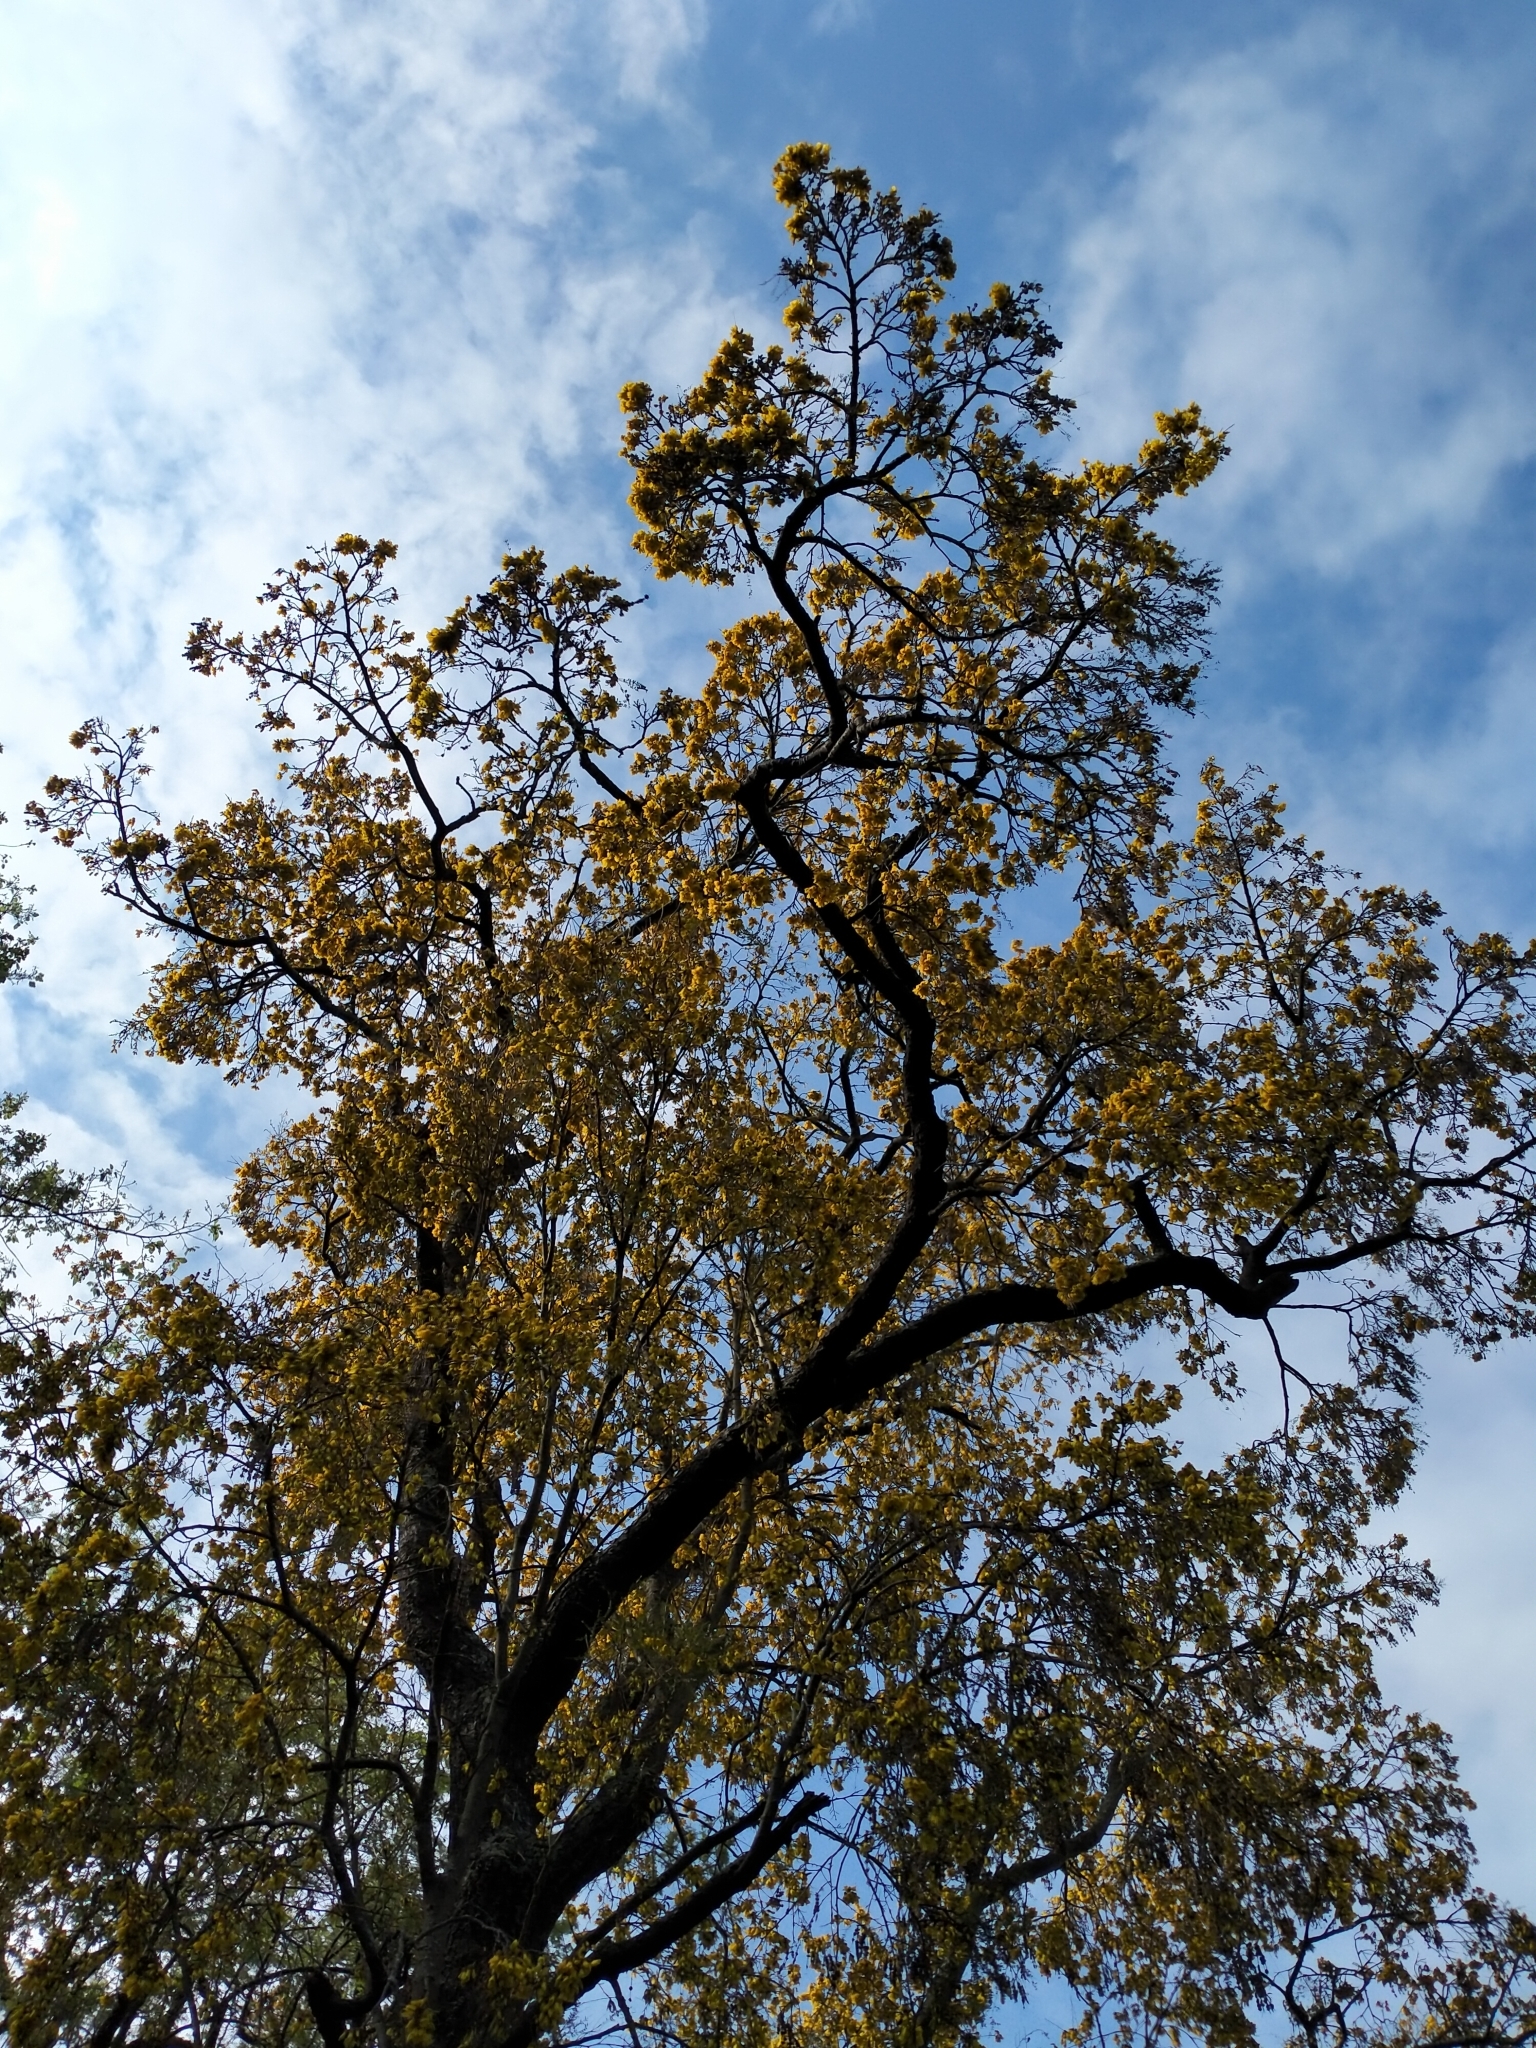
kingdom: Plantae
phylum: Tracheophyta
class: Magnoliopsida
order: Fabales
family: Fabaceae
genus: Sophora
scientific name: Sophora microphylla
